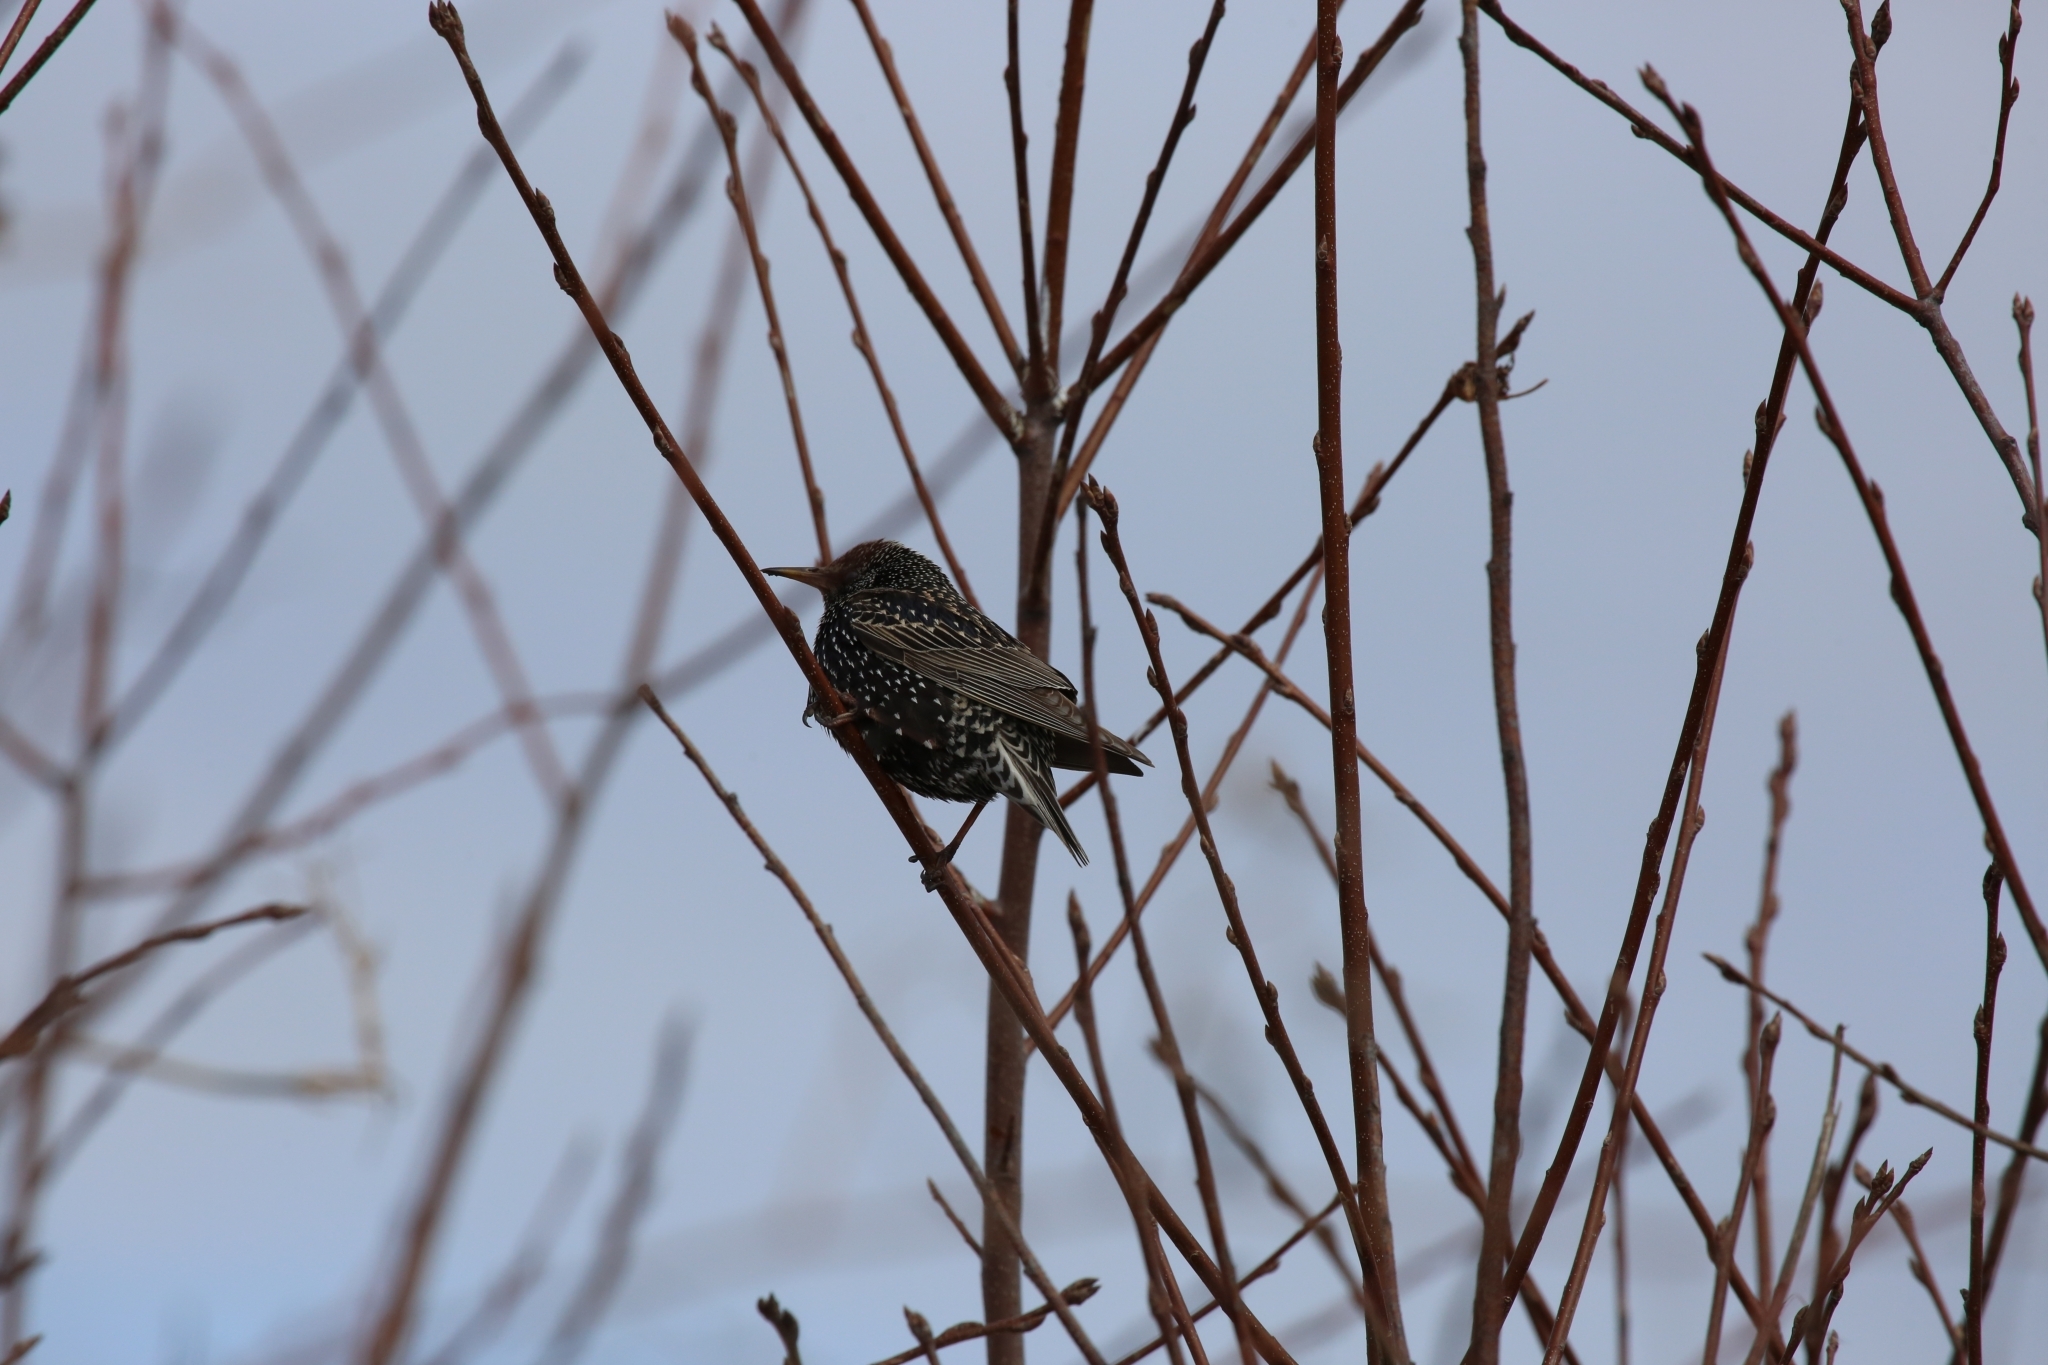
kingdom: Animalia
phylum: Chordata
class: Aves
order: Passeriformes
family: Sturnidae
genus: Sturnus
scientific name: Sturnus vulgaris
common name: Common starling
